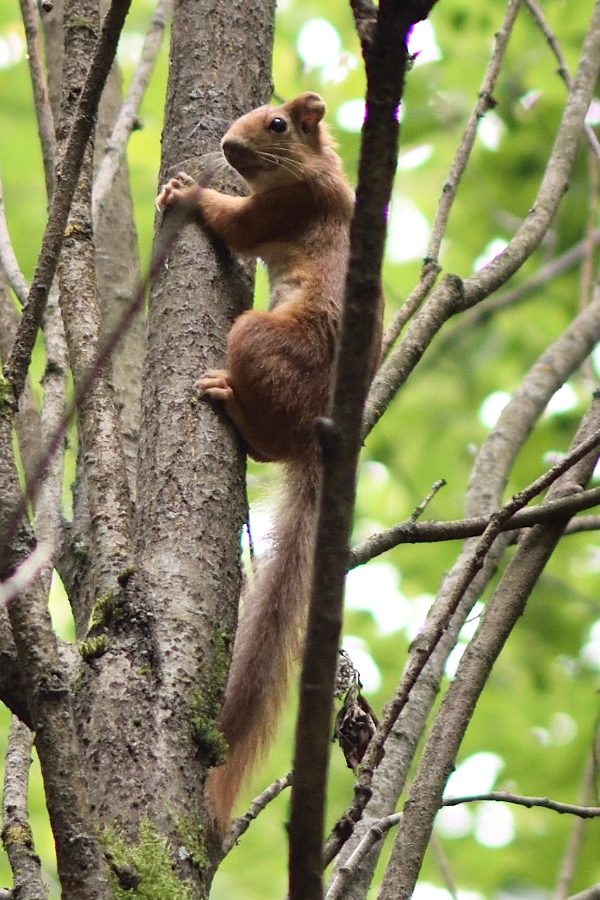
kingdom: Animalia
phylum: Chordata
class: Mammalia
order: Rodentia
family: Sciuridae
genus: Sciurus
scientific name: Sciurus vulgaris
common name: Eurasian red squirrel
